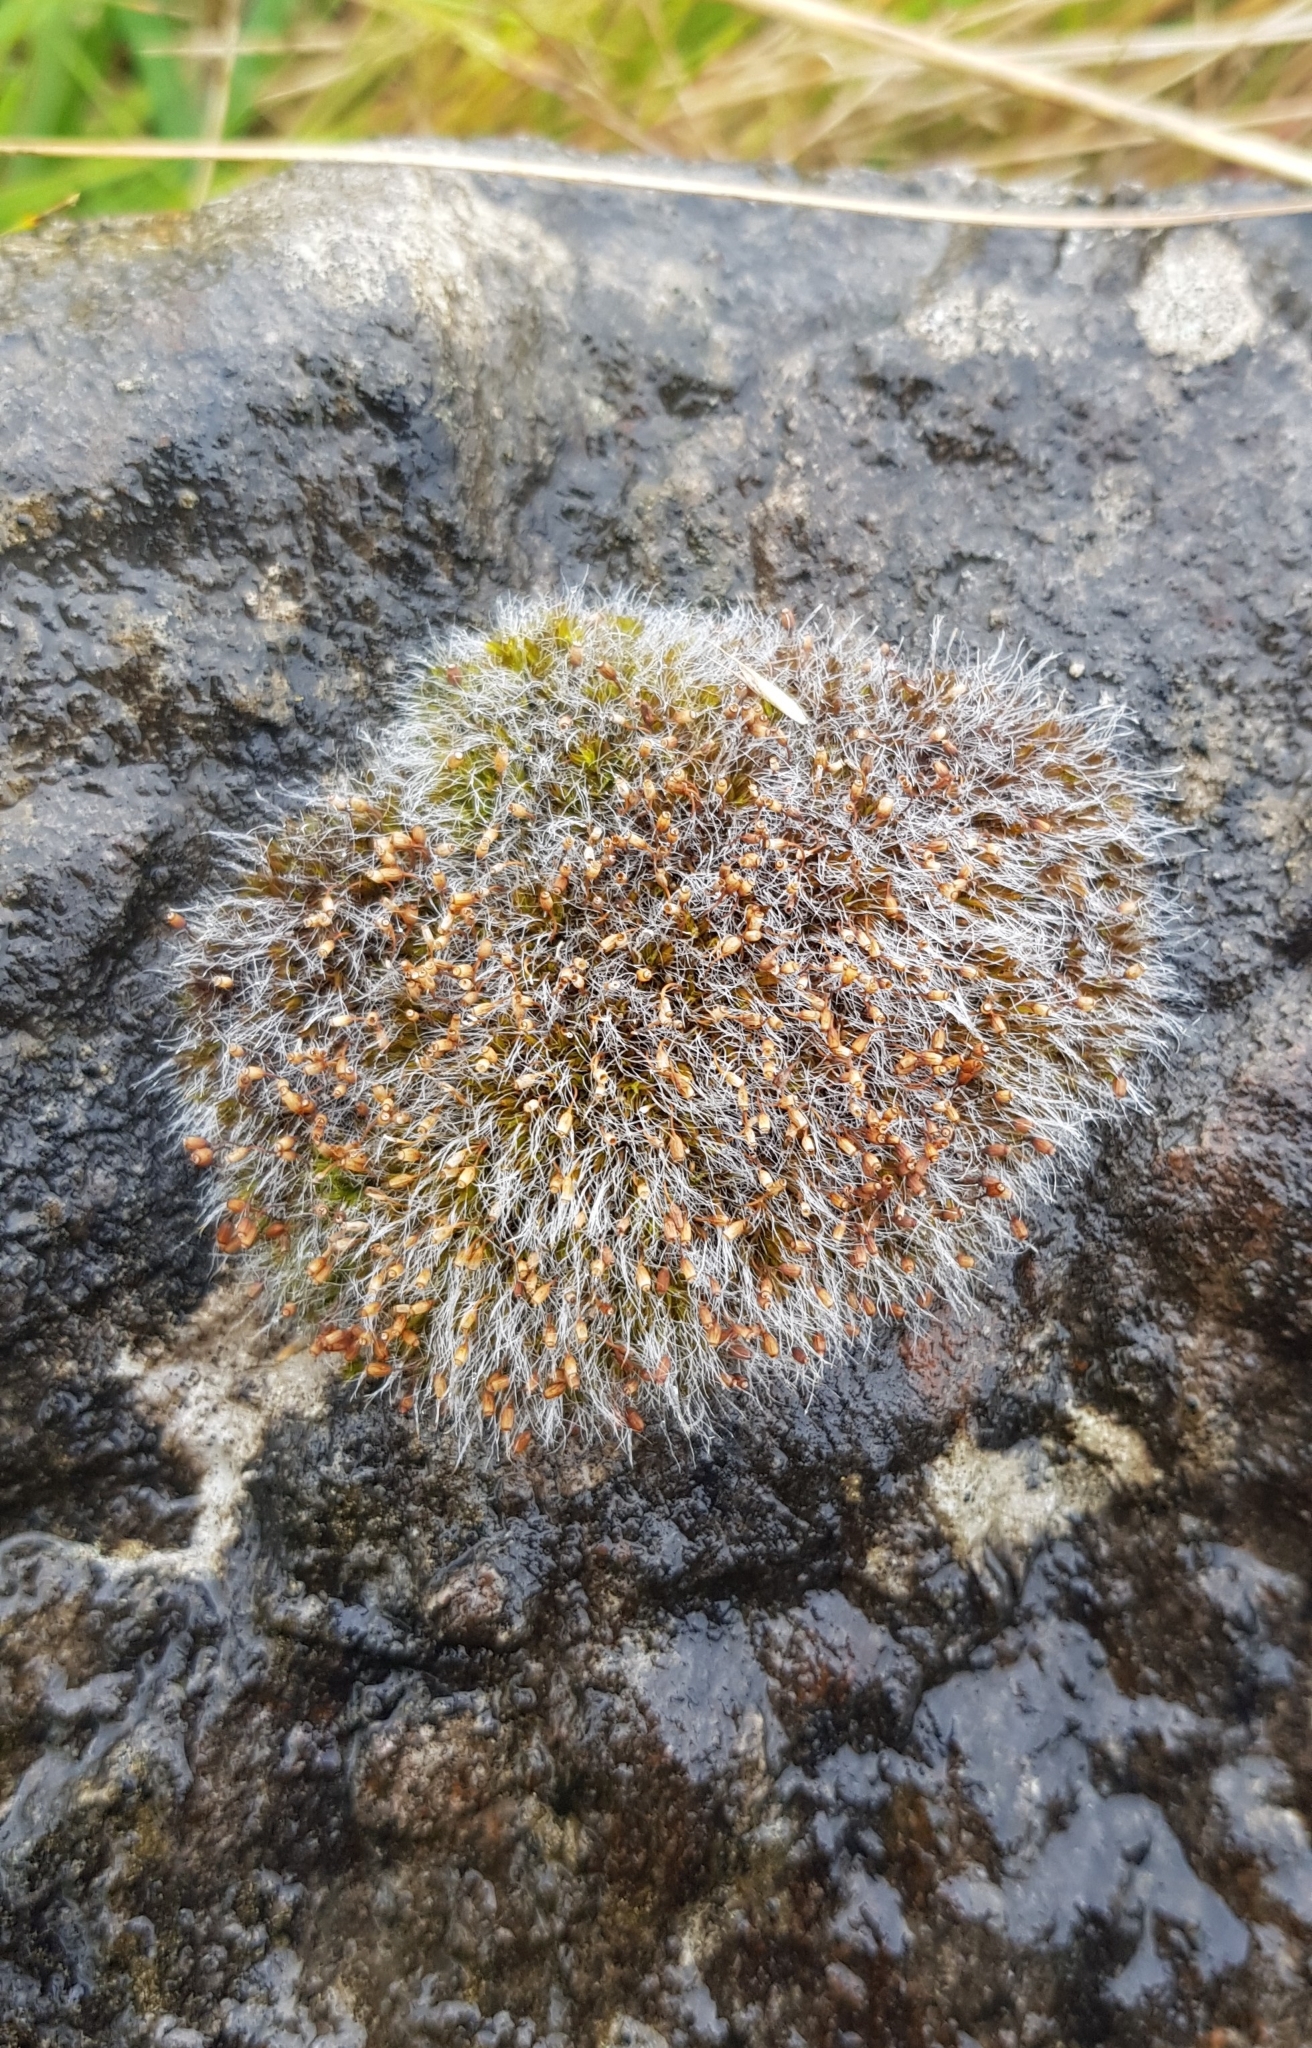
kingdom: Plantae
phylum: Bryophyta
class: Bryopsida
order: Grimmiales
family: Grimmiaceae
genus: Grimmia
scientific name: Grimmia pulvinata
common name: Grey-cushioned grimmia
